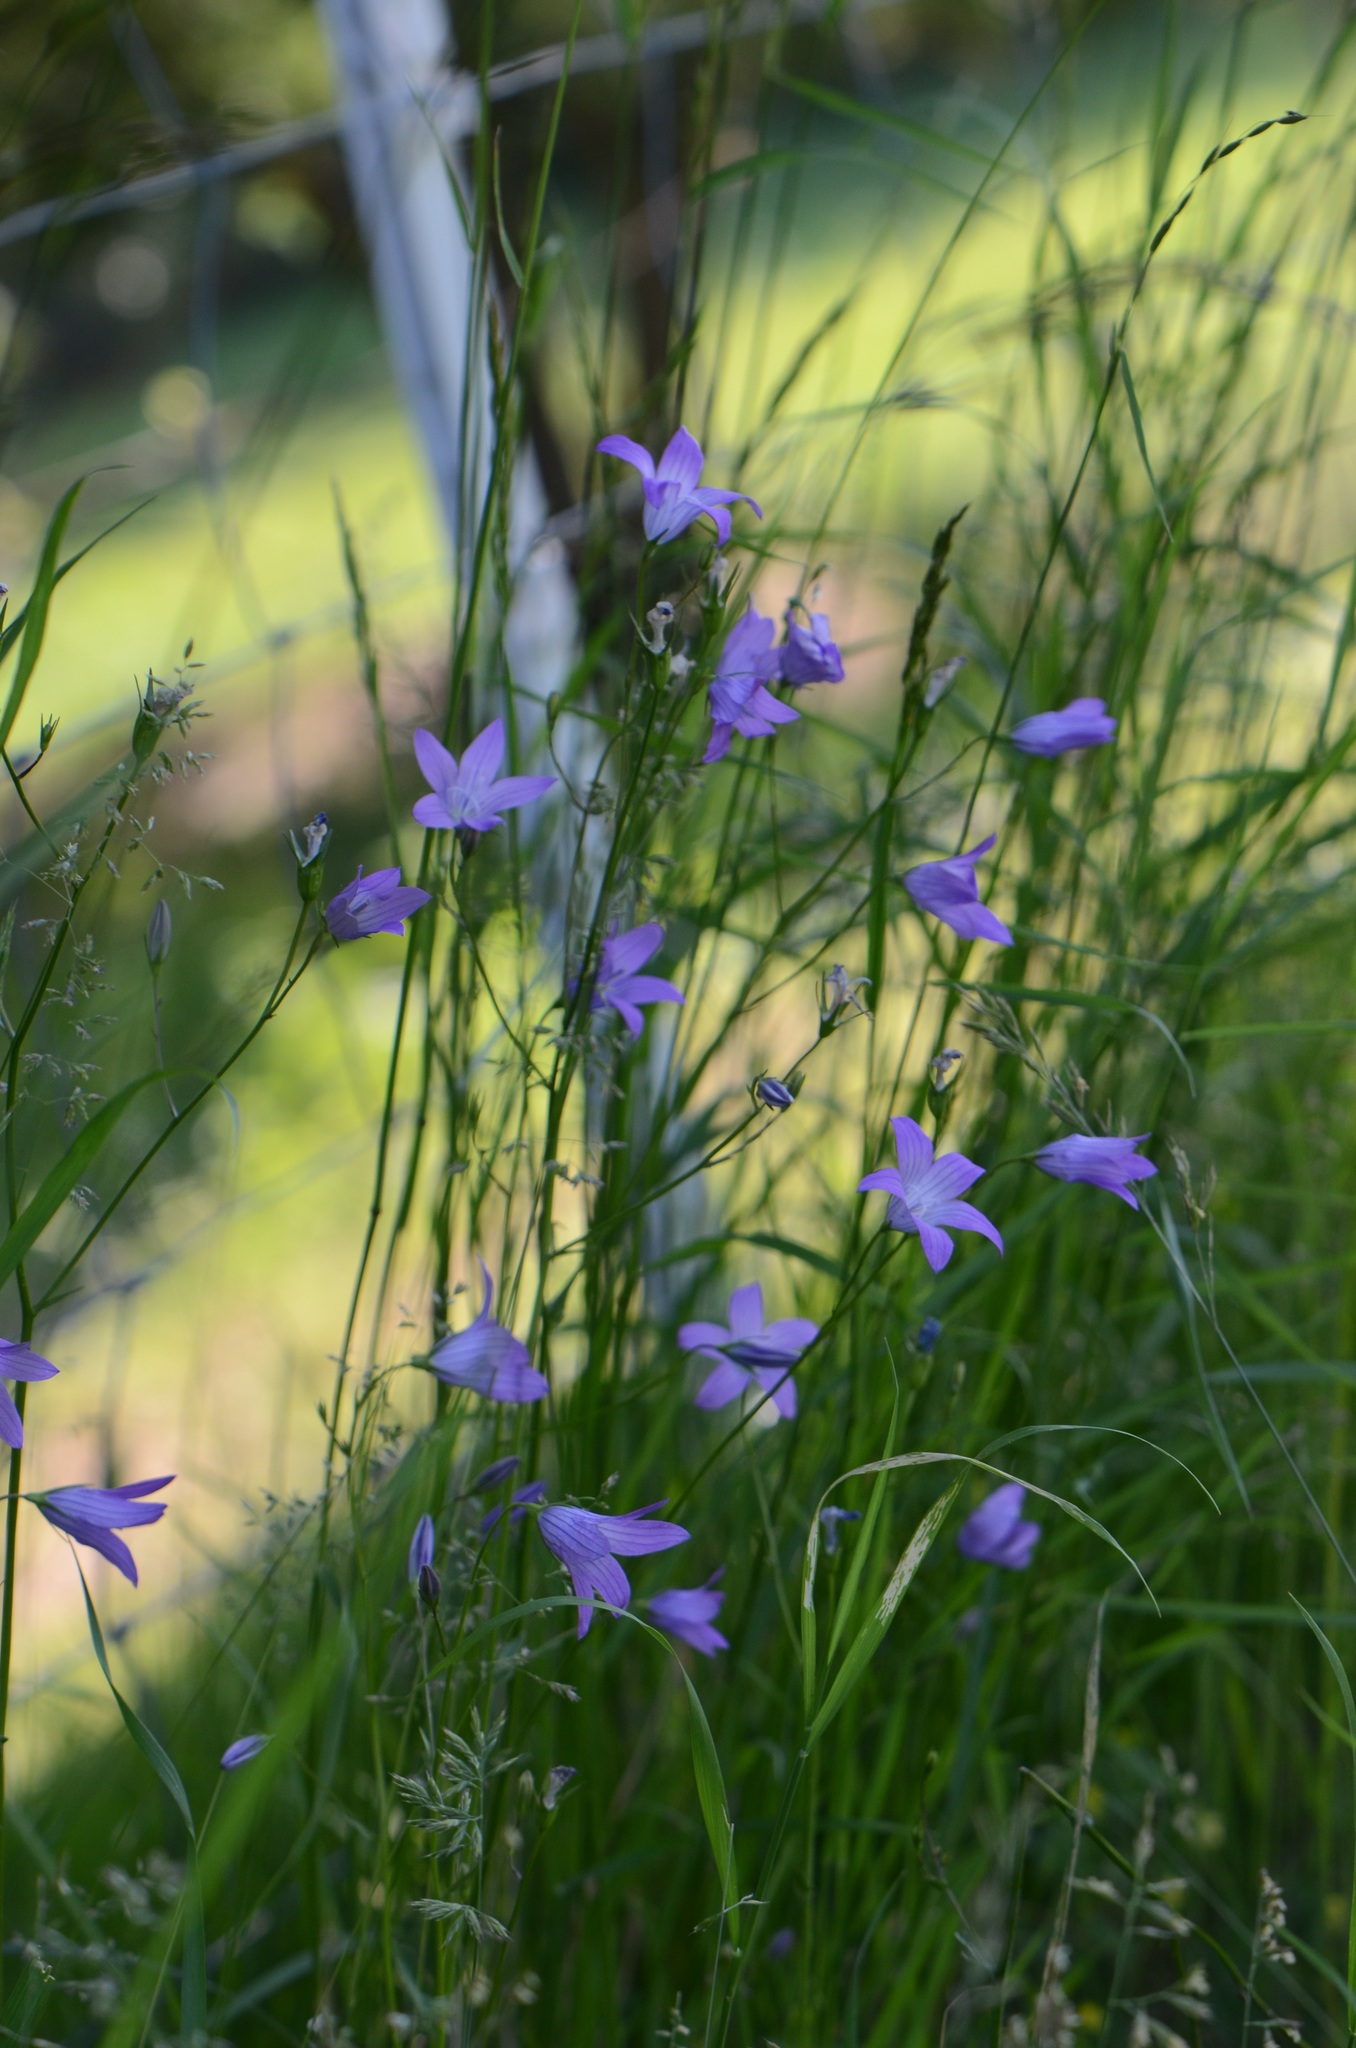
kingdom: Plantae
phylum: Tracheophyta
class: Magnoliopsida
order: Asterales
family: Campanulaceae
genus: Campanula
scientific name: Campanula patula
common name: Spreading bellflower
